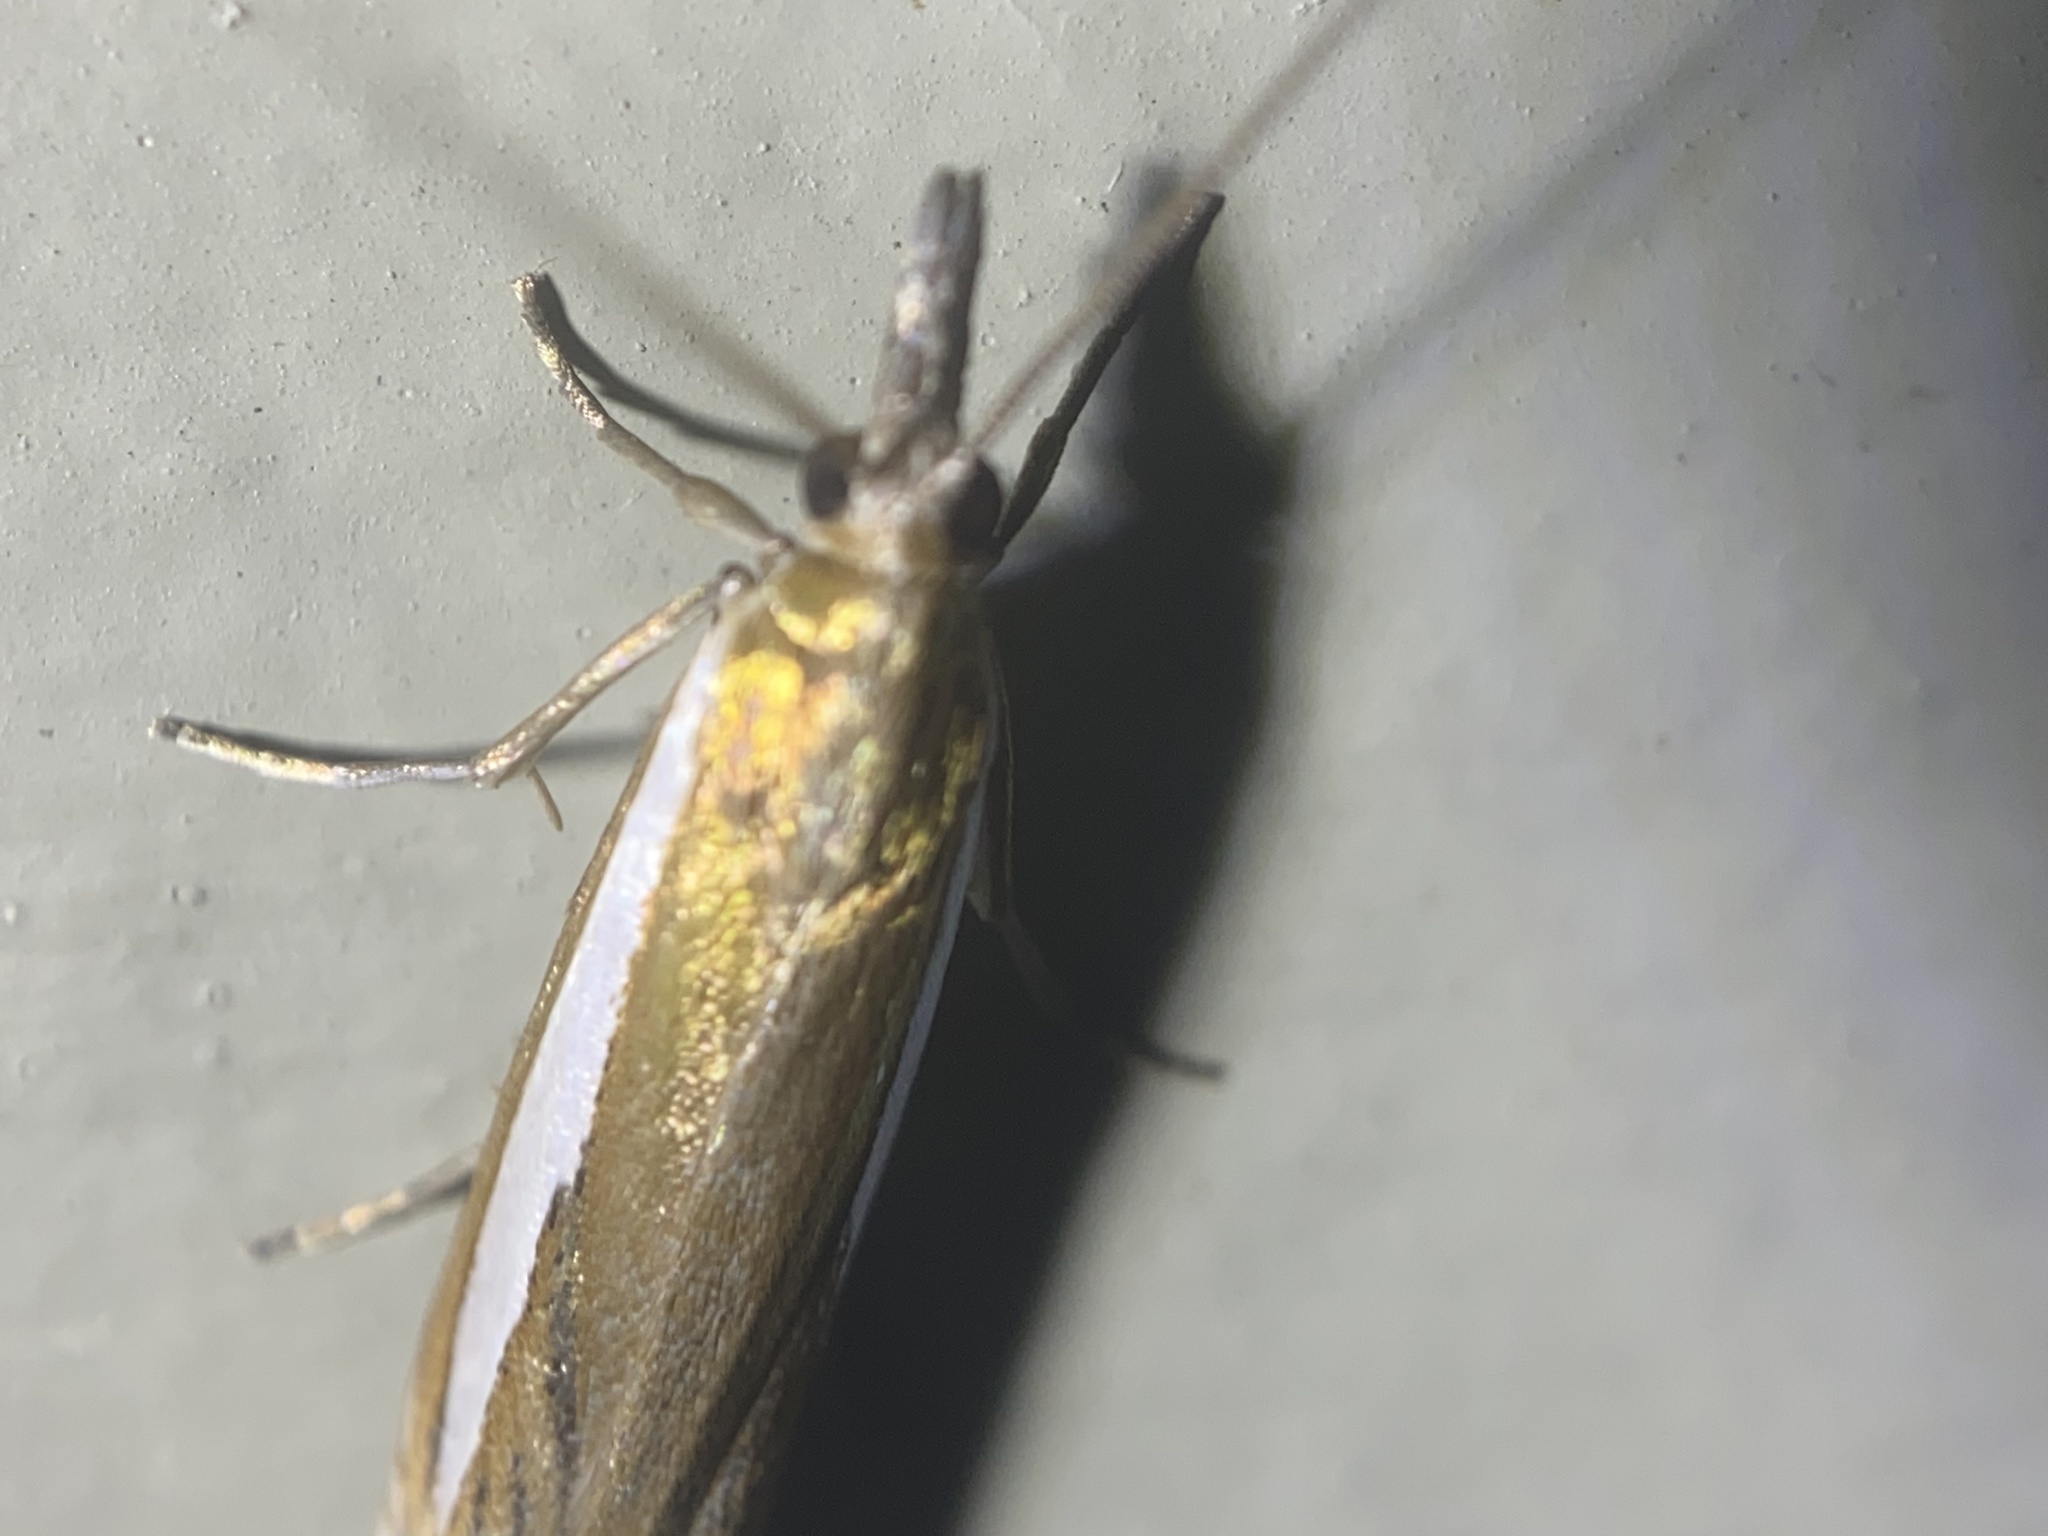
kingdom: Animalia
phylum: Arthropoda
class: Insecta
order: Lepidoptera
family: Crambidae
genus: Crambus
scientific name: Crambus praefectellus
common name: Common grass-veneer
